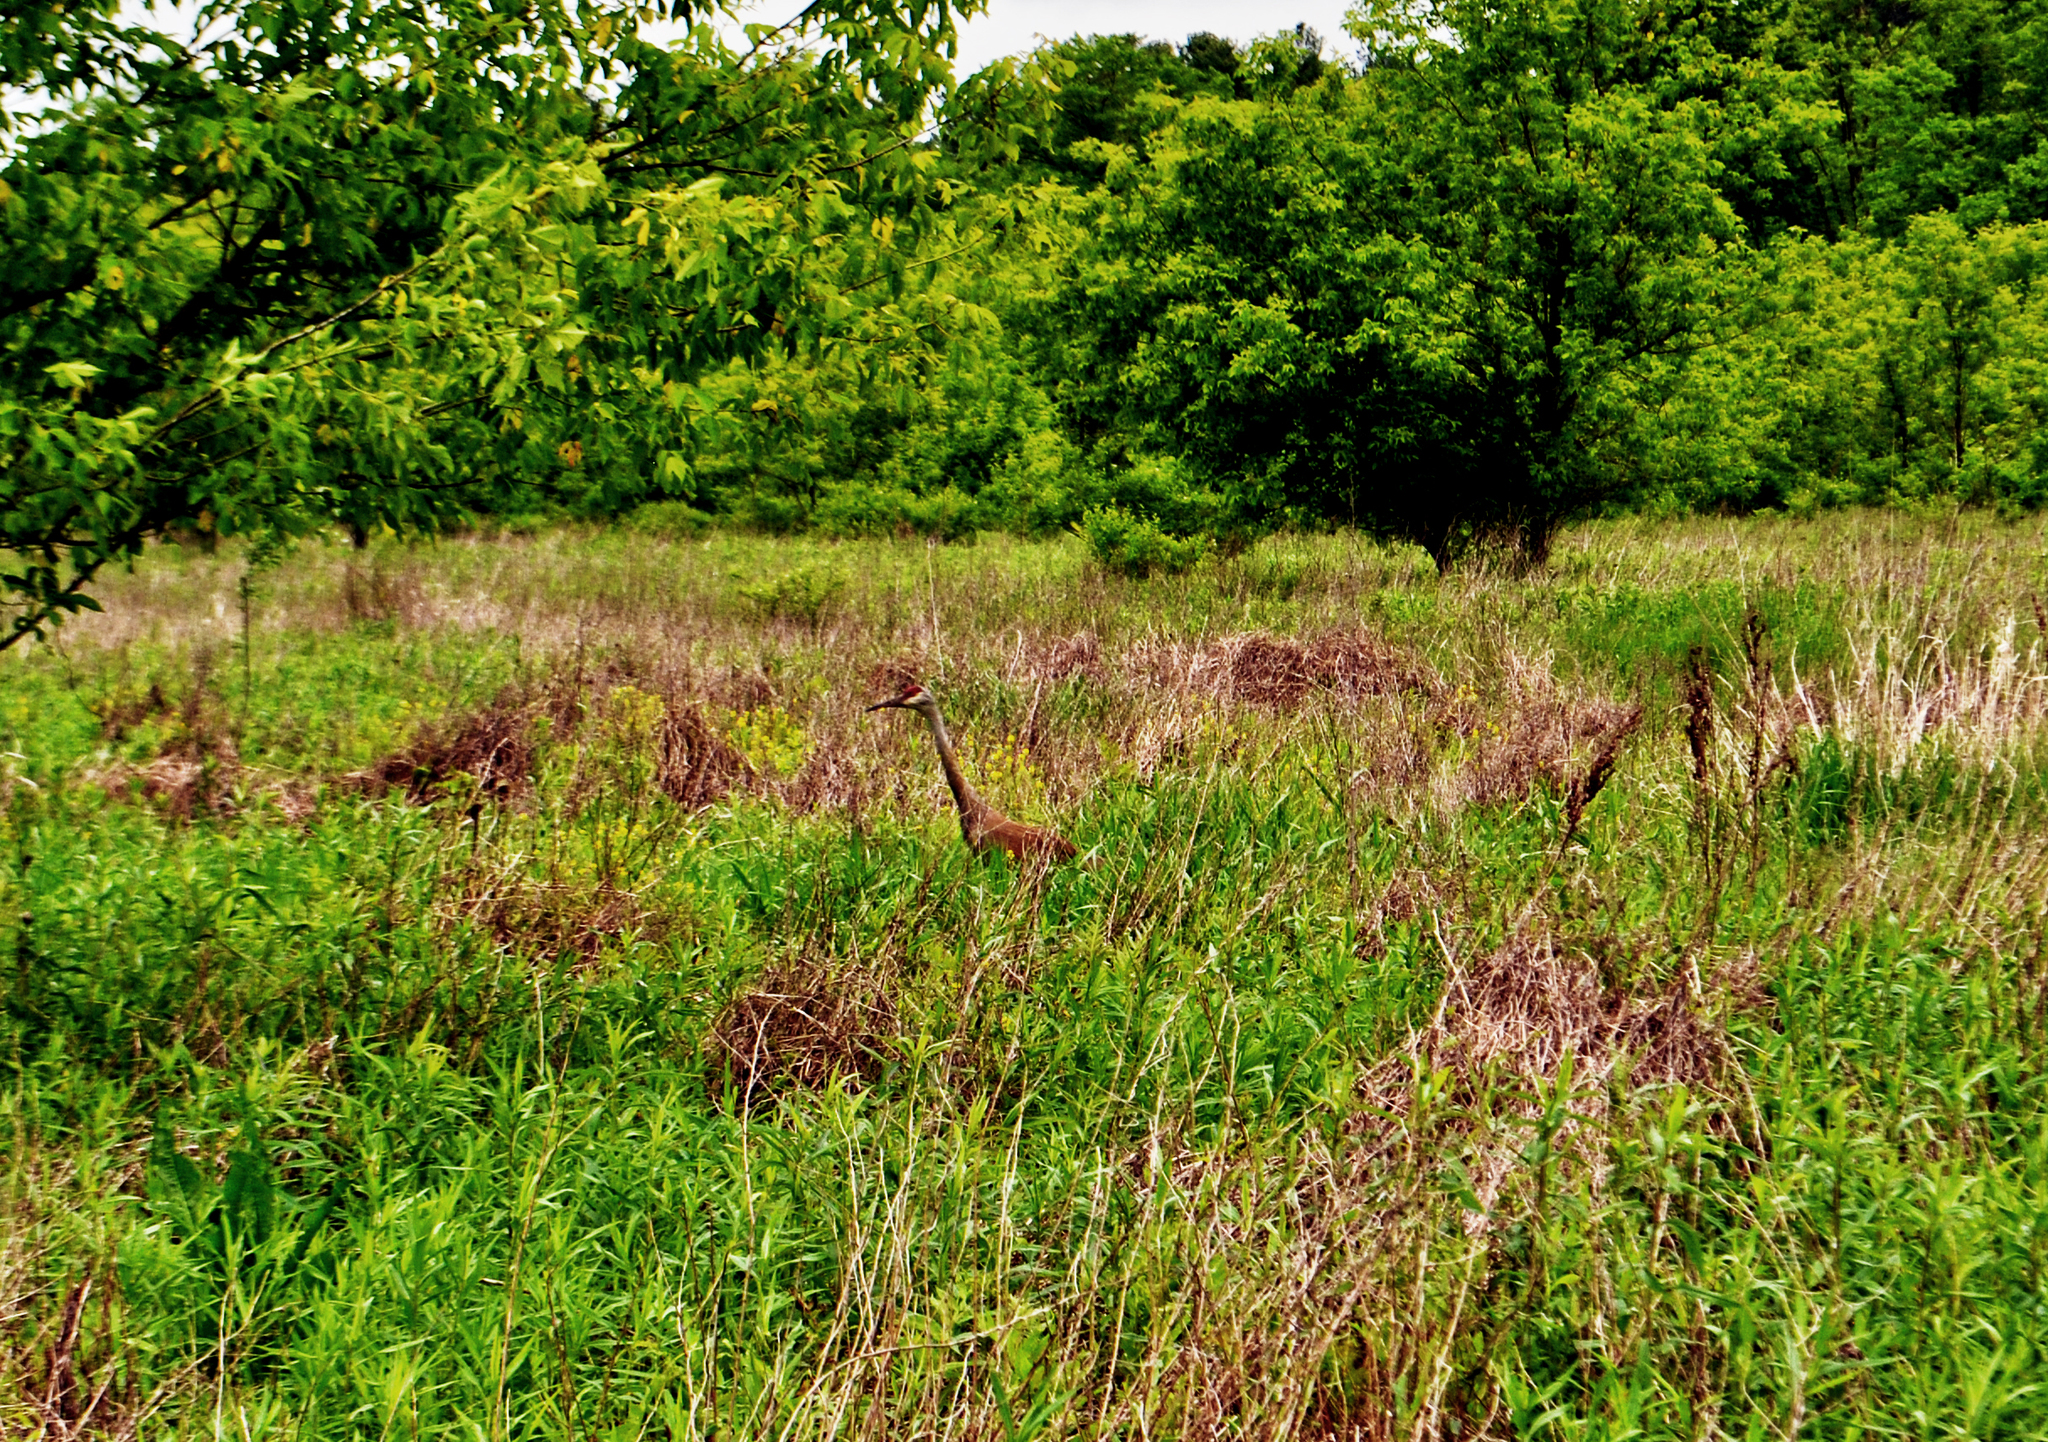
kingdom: Animalia
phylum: Chordata
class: Aves
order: Gruiformes
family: Gruidae
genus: Grus
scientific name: Grus canadensis
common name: Sandhill crane
